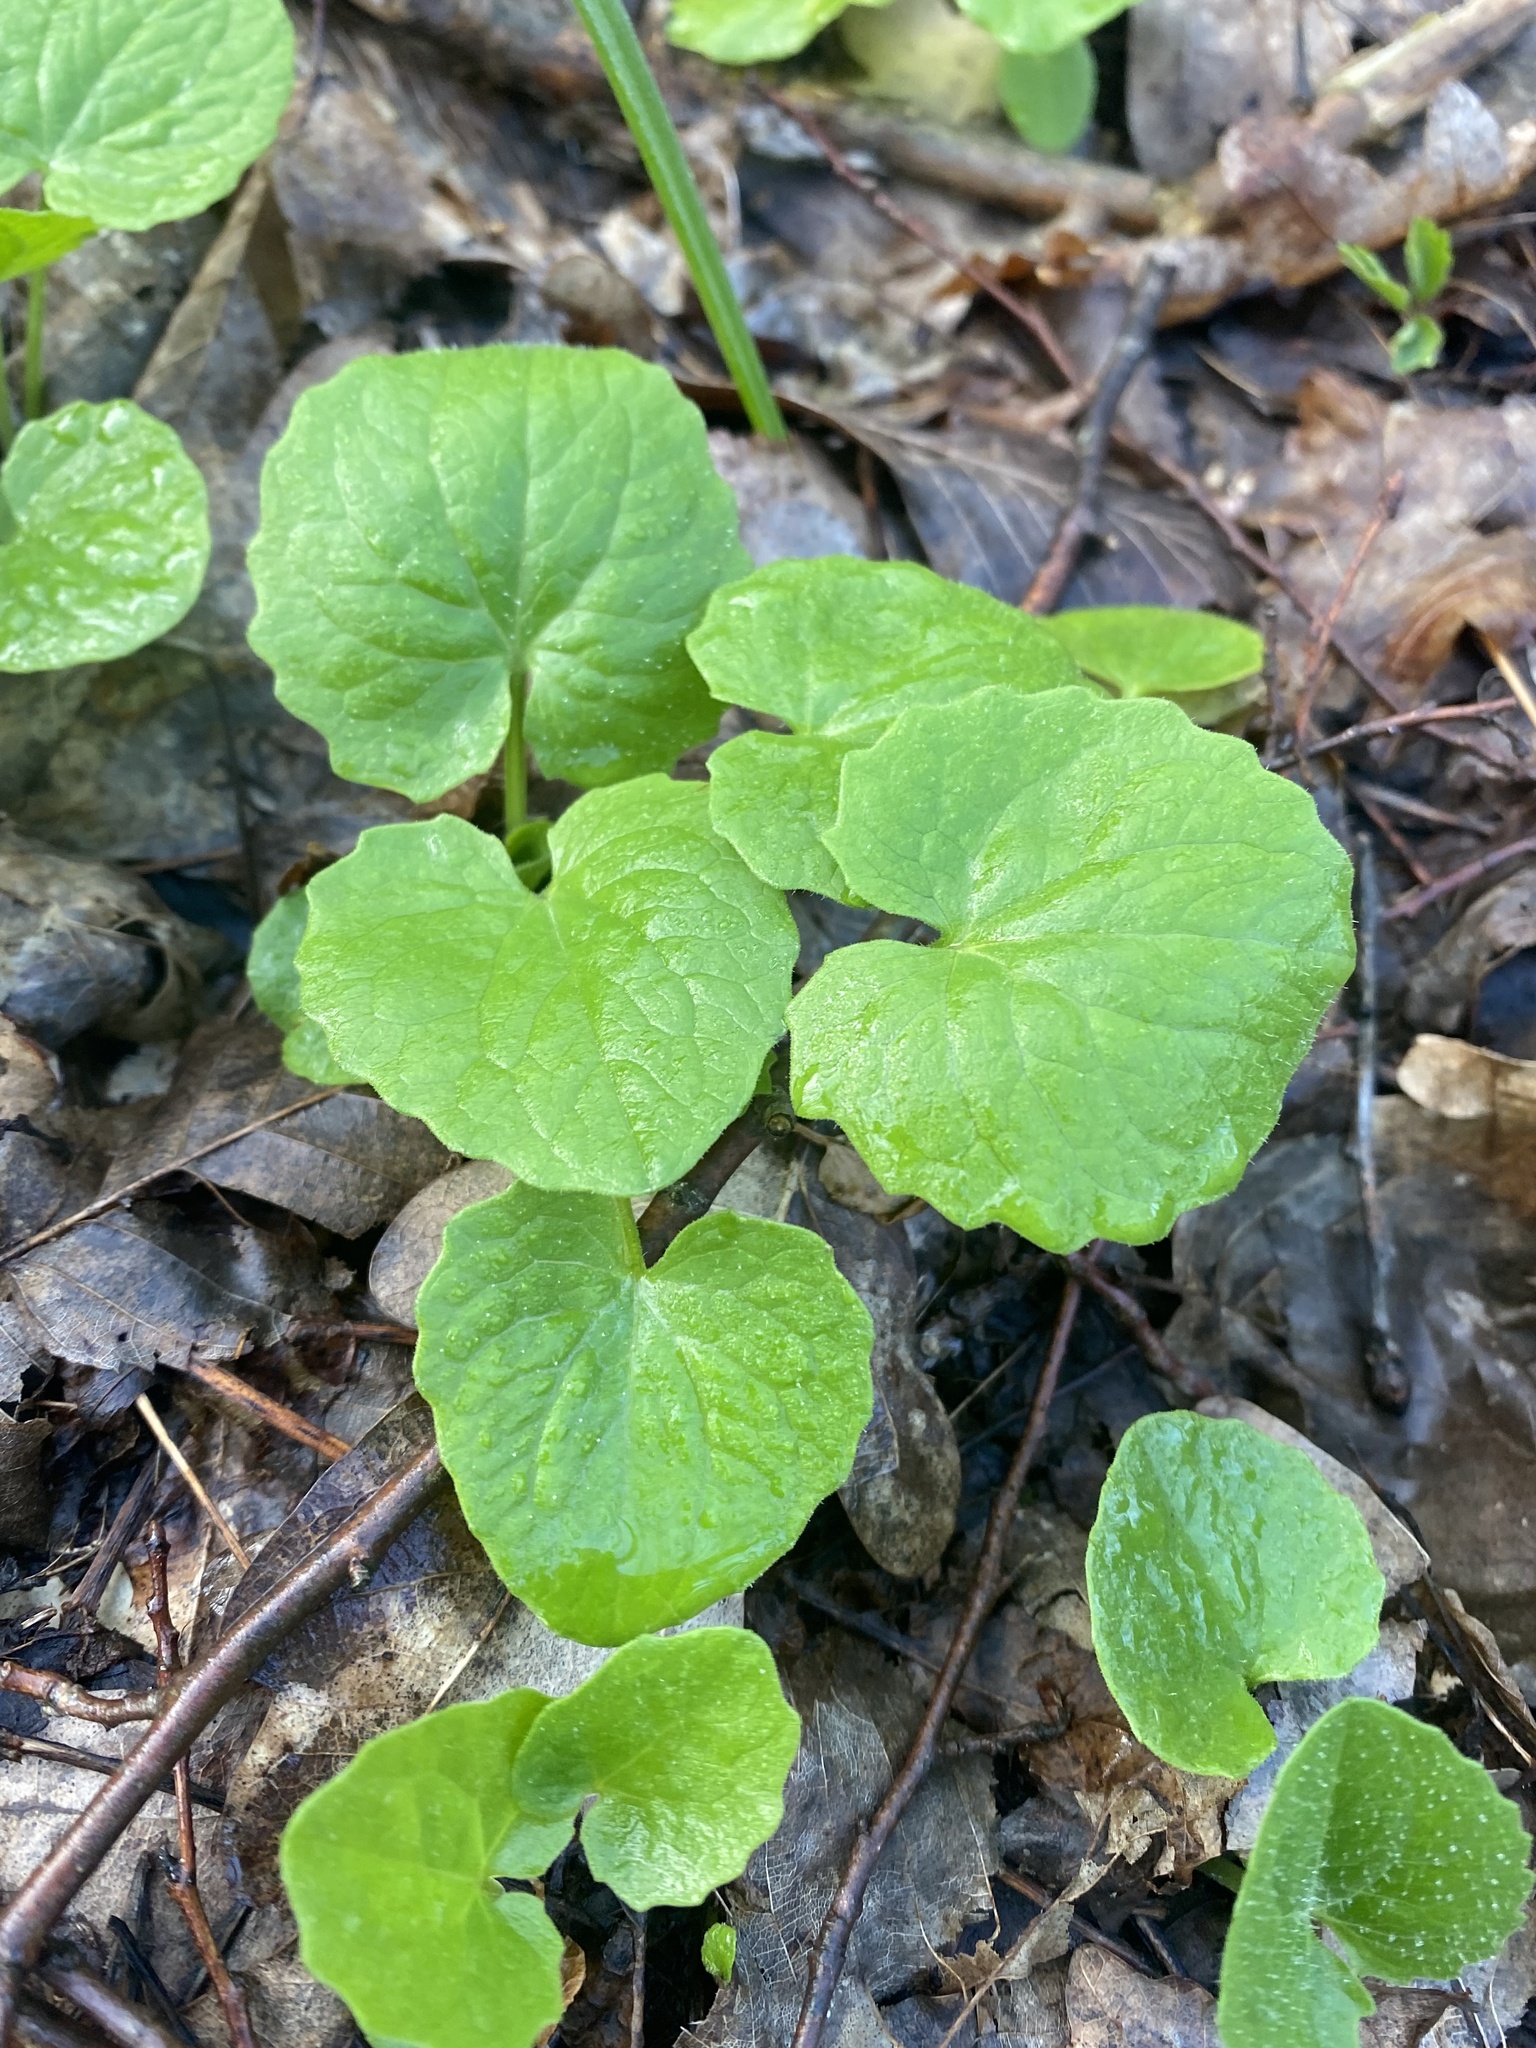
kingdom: Plantae
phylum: Tracheophyta
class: Magnoliopsida
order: Asterales
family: Asteraceae
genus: Doronicum
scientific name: Doronicum
